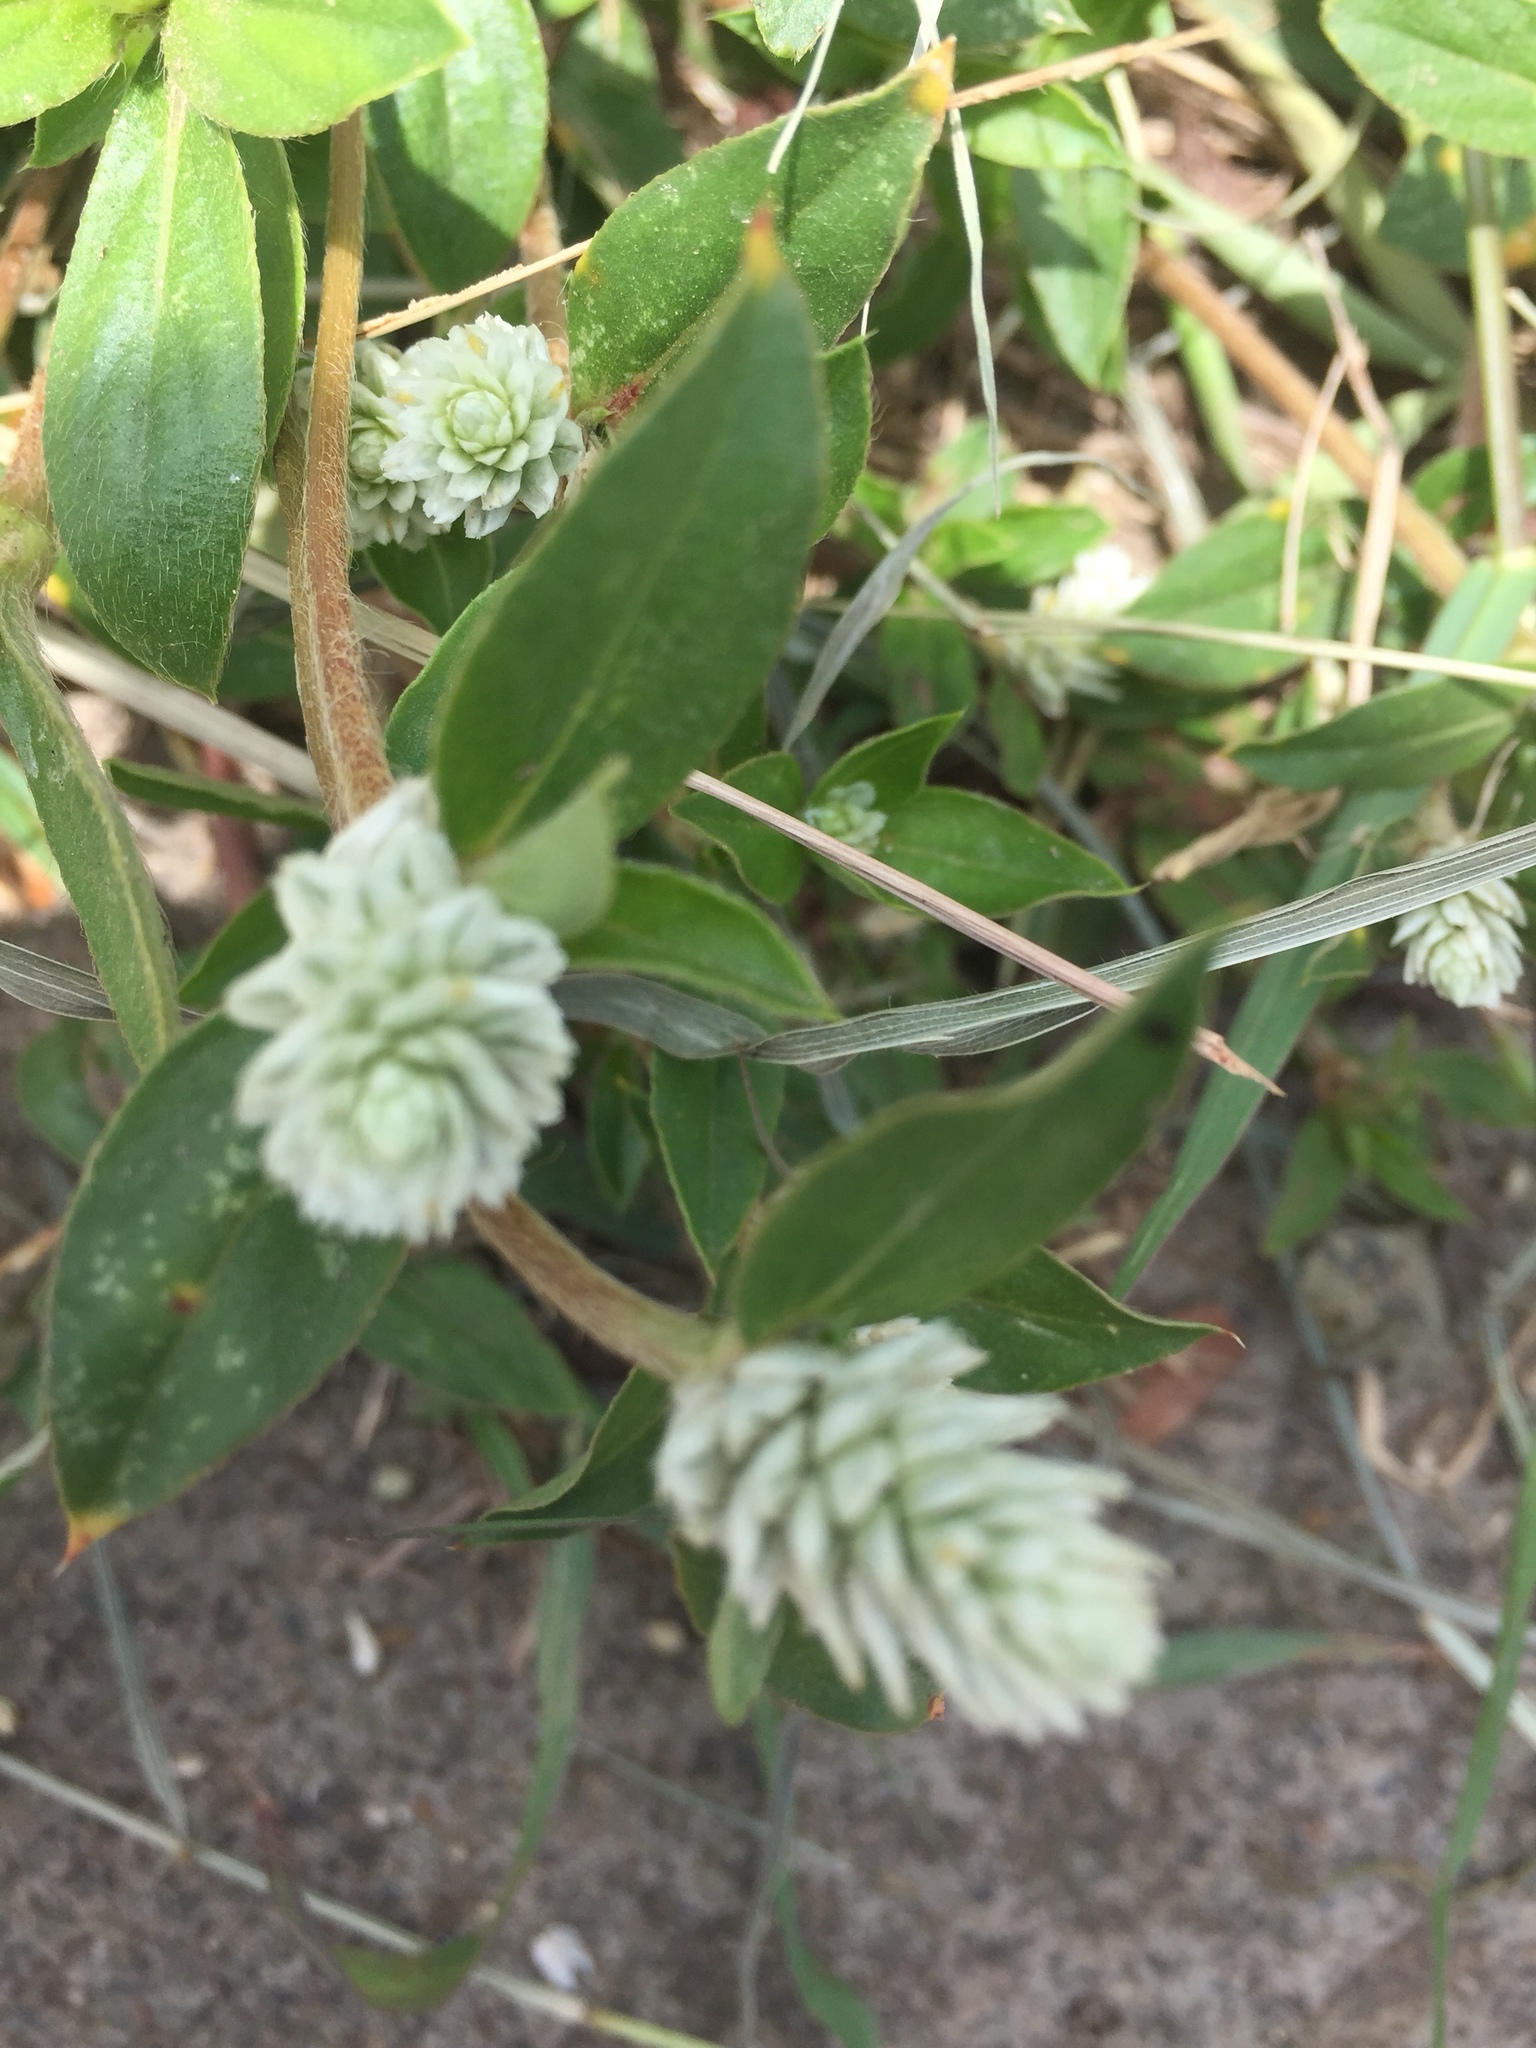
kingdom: Plantae
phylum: Tracheophyta
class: Magnoliopsida
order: Caryophyllales
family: Amaranthaceae
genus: Gomphrena
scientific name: Gomphrena serrata
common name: Arrasa con todo
